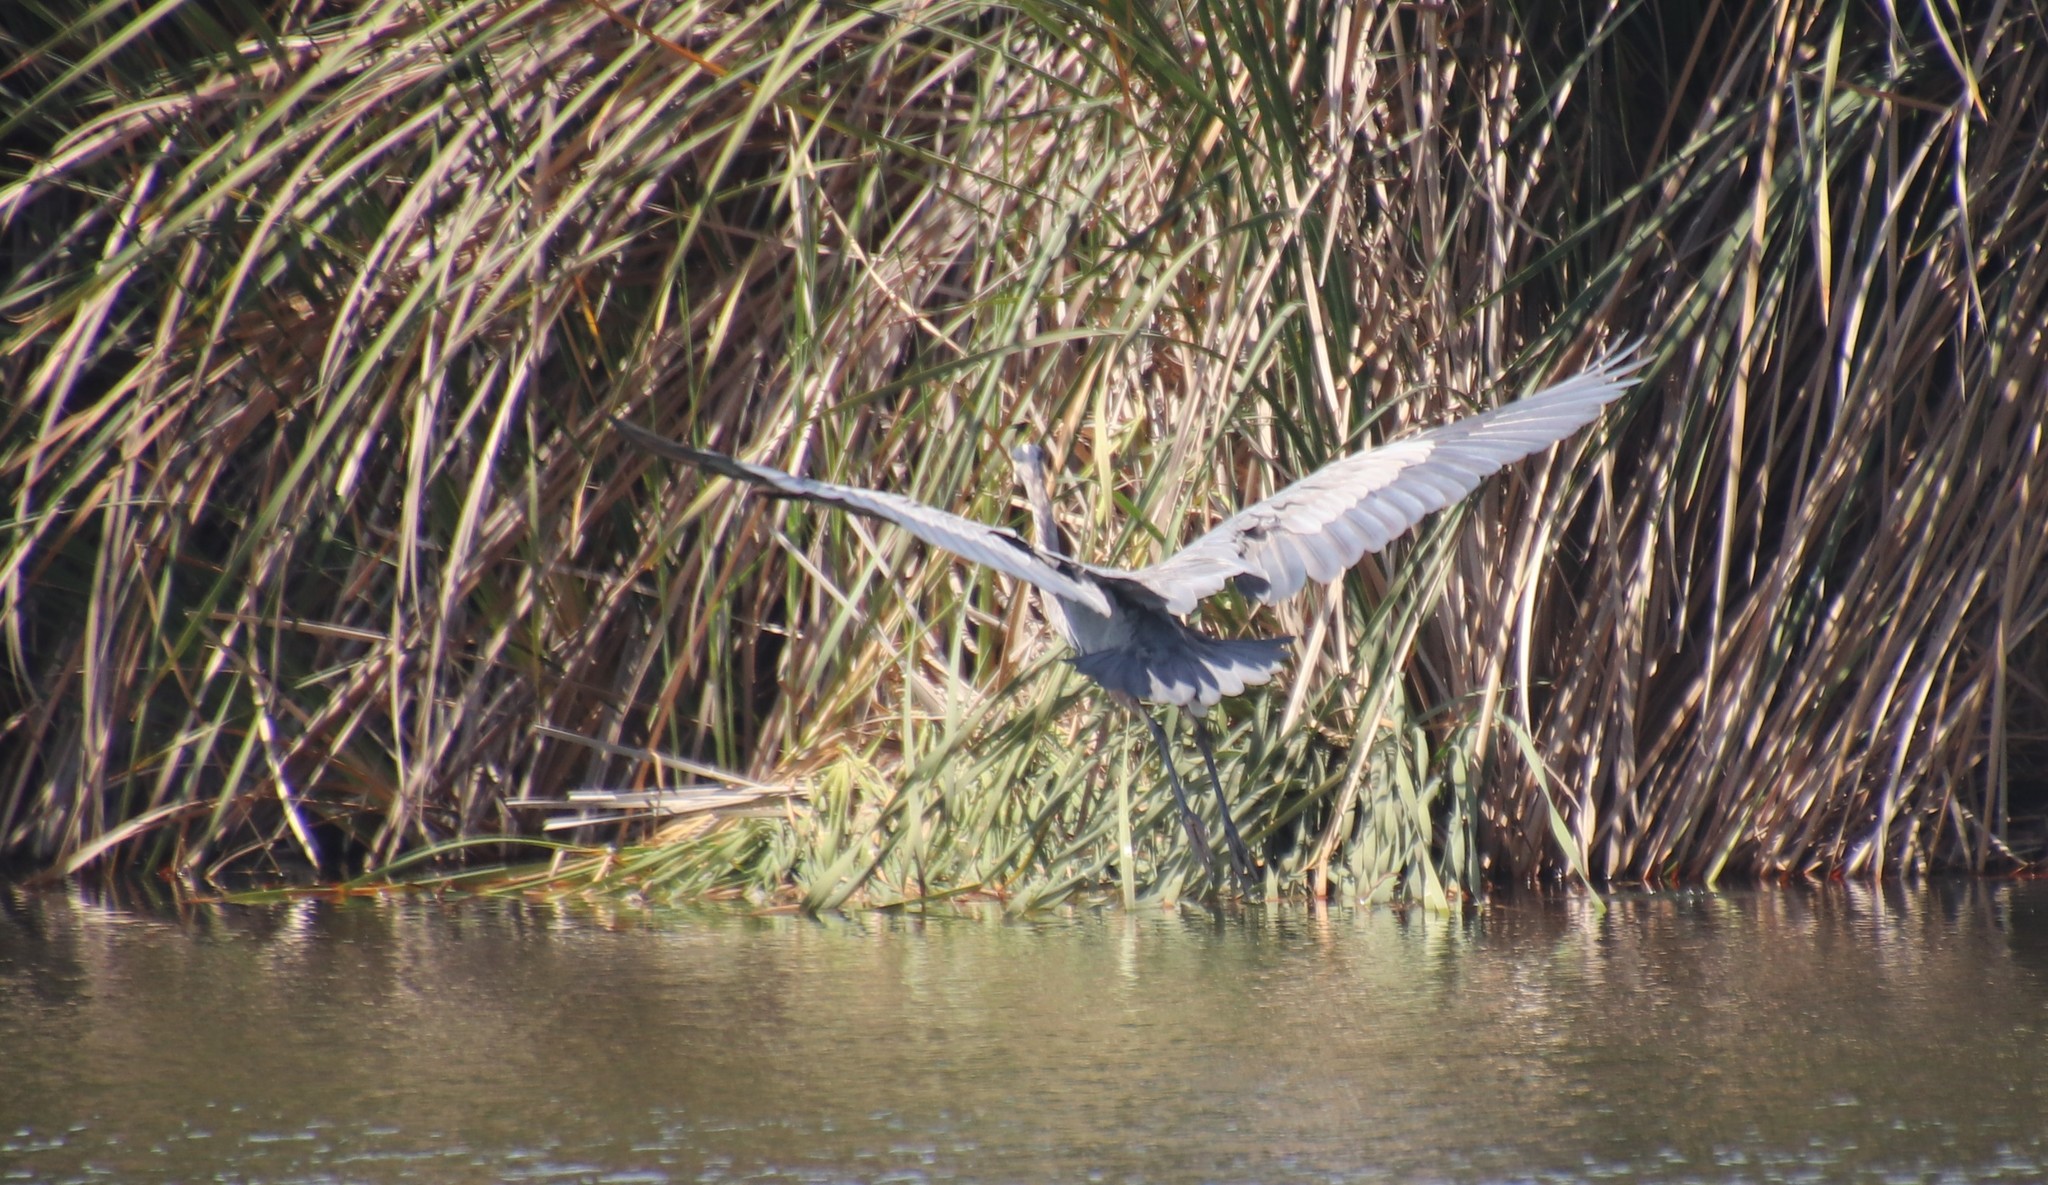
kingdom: Animalia
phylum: Chordata
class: Aves
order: Pelecaniformes
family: Ardeidae
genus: Ardea
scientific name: Ardea herodias
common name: Great blue heron
